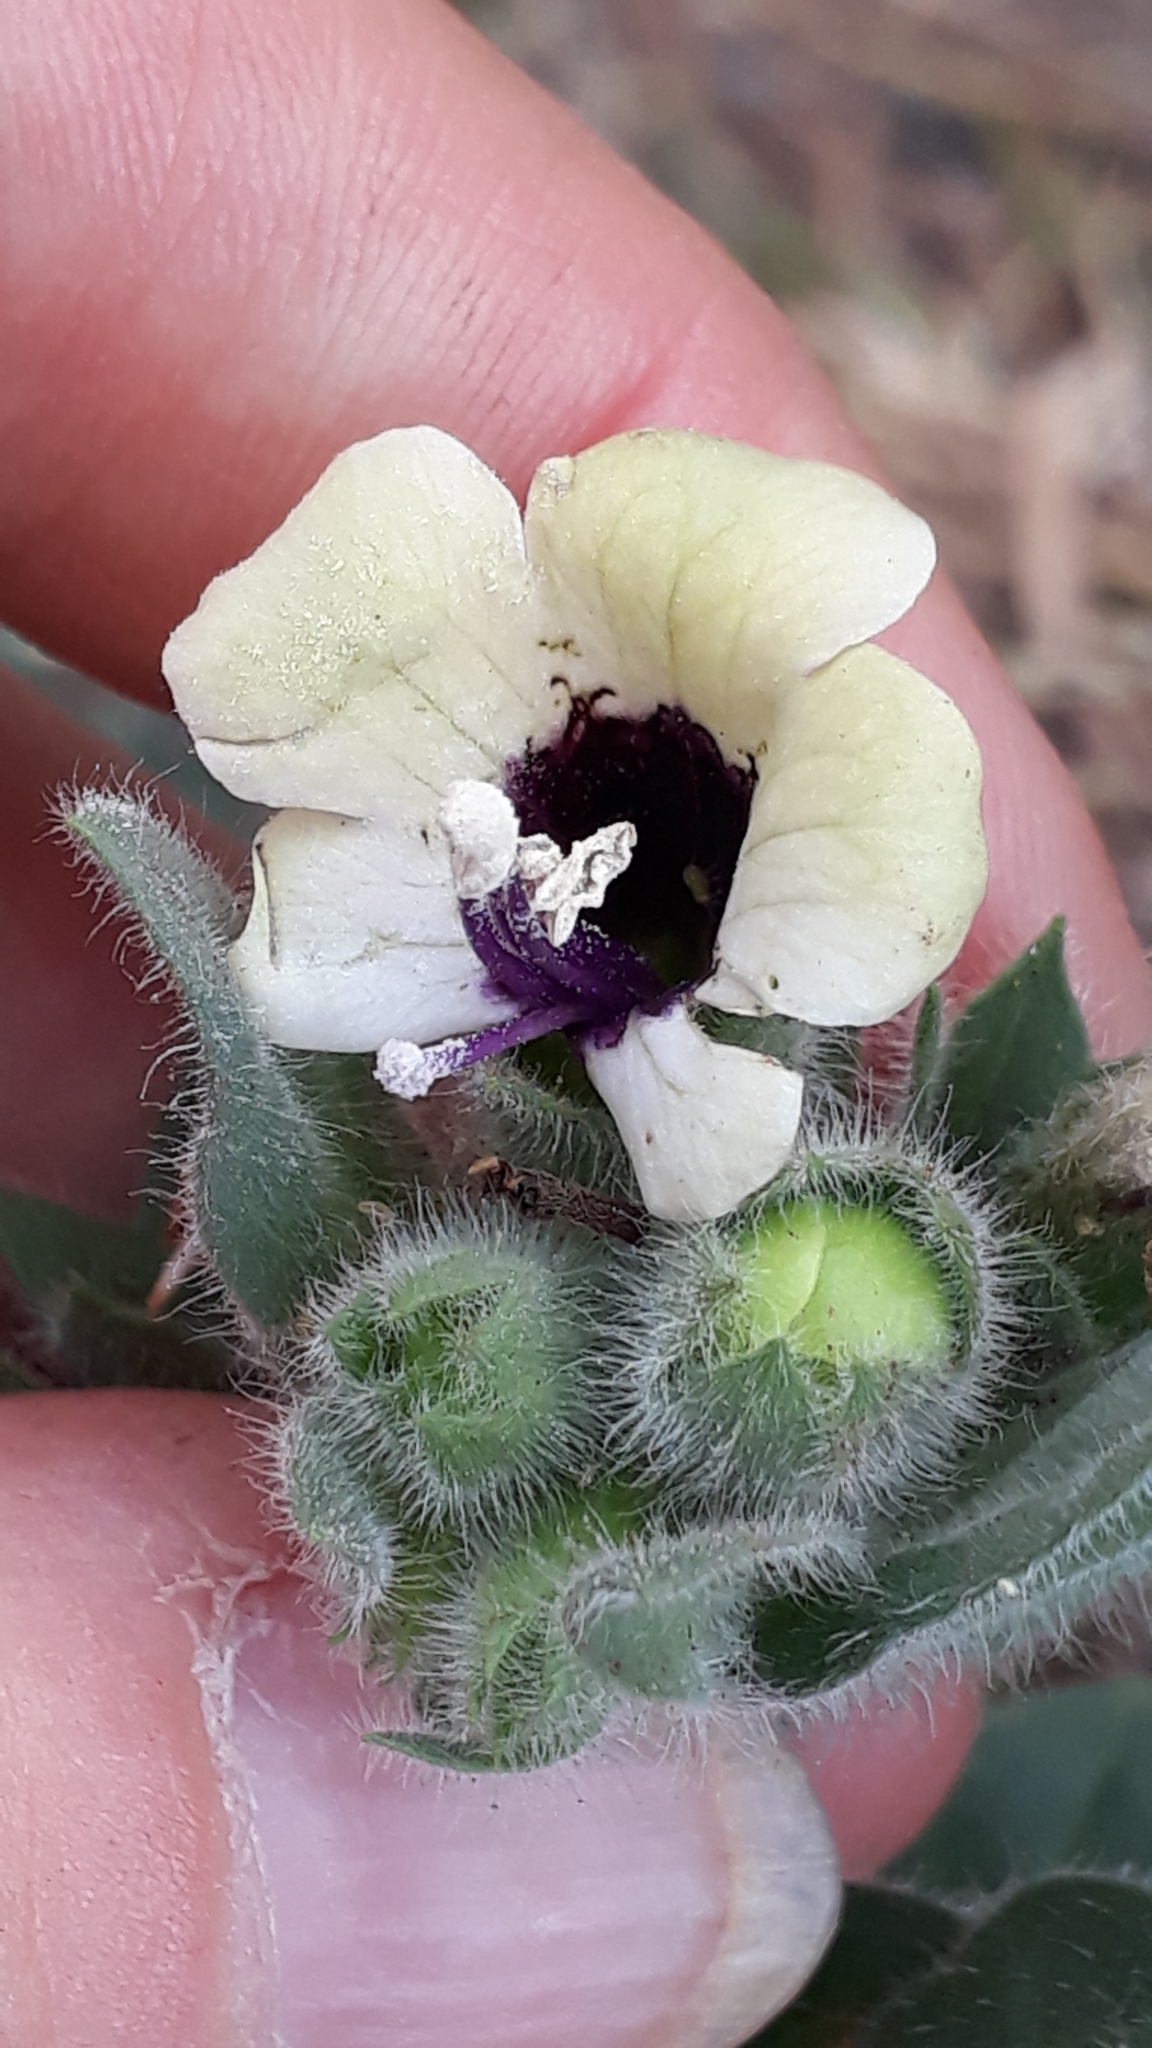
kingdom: Plantae
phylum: Tracheophyta
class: Magnoliopsida
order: Solanales
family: Solanaceae
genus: Hyoscyamus
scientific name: Hyoscyamus albus
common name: White henbane
